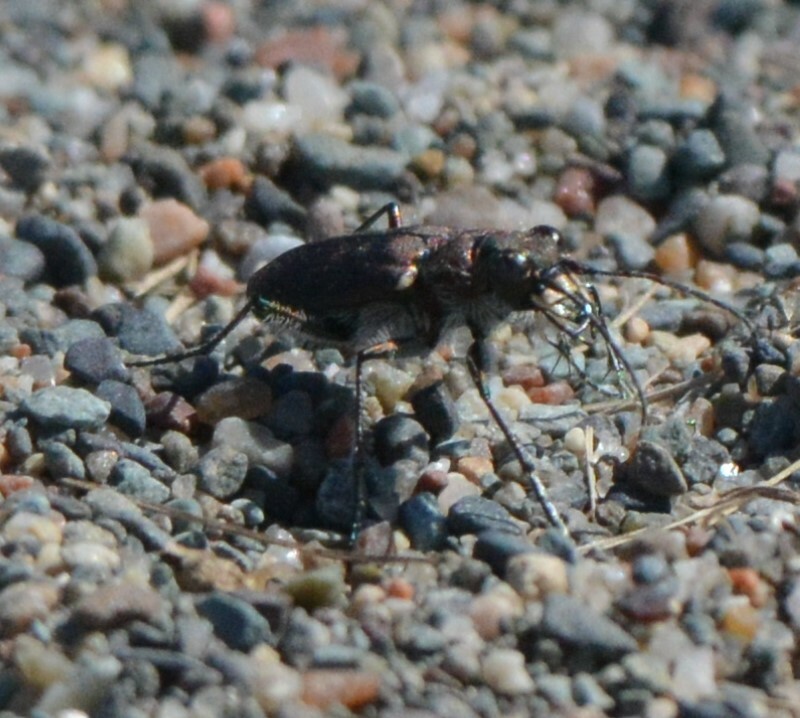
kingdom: Animalia
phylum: Arthropoda
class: Insecta
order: Coleoptera
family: Carabidae
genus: Cicindela
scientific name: Cicindela duodecimguttata
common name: Twelve-spotted tiger beetle
